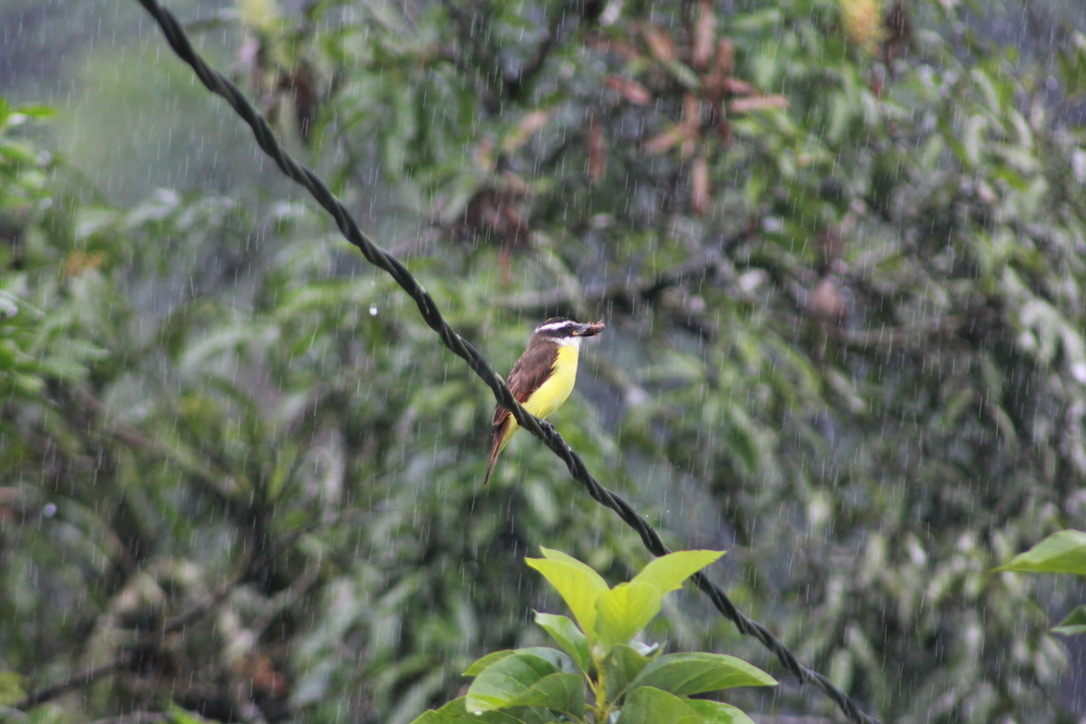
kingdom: Animalia
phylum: Chordata
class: Aves
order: Passeriformes
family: Tyrannidae
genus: Pitangus
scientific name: Pitangus sulphuratus
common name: Great kiskadee
